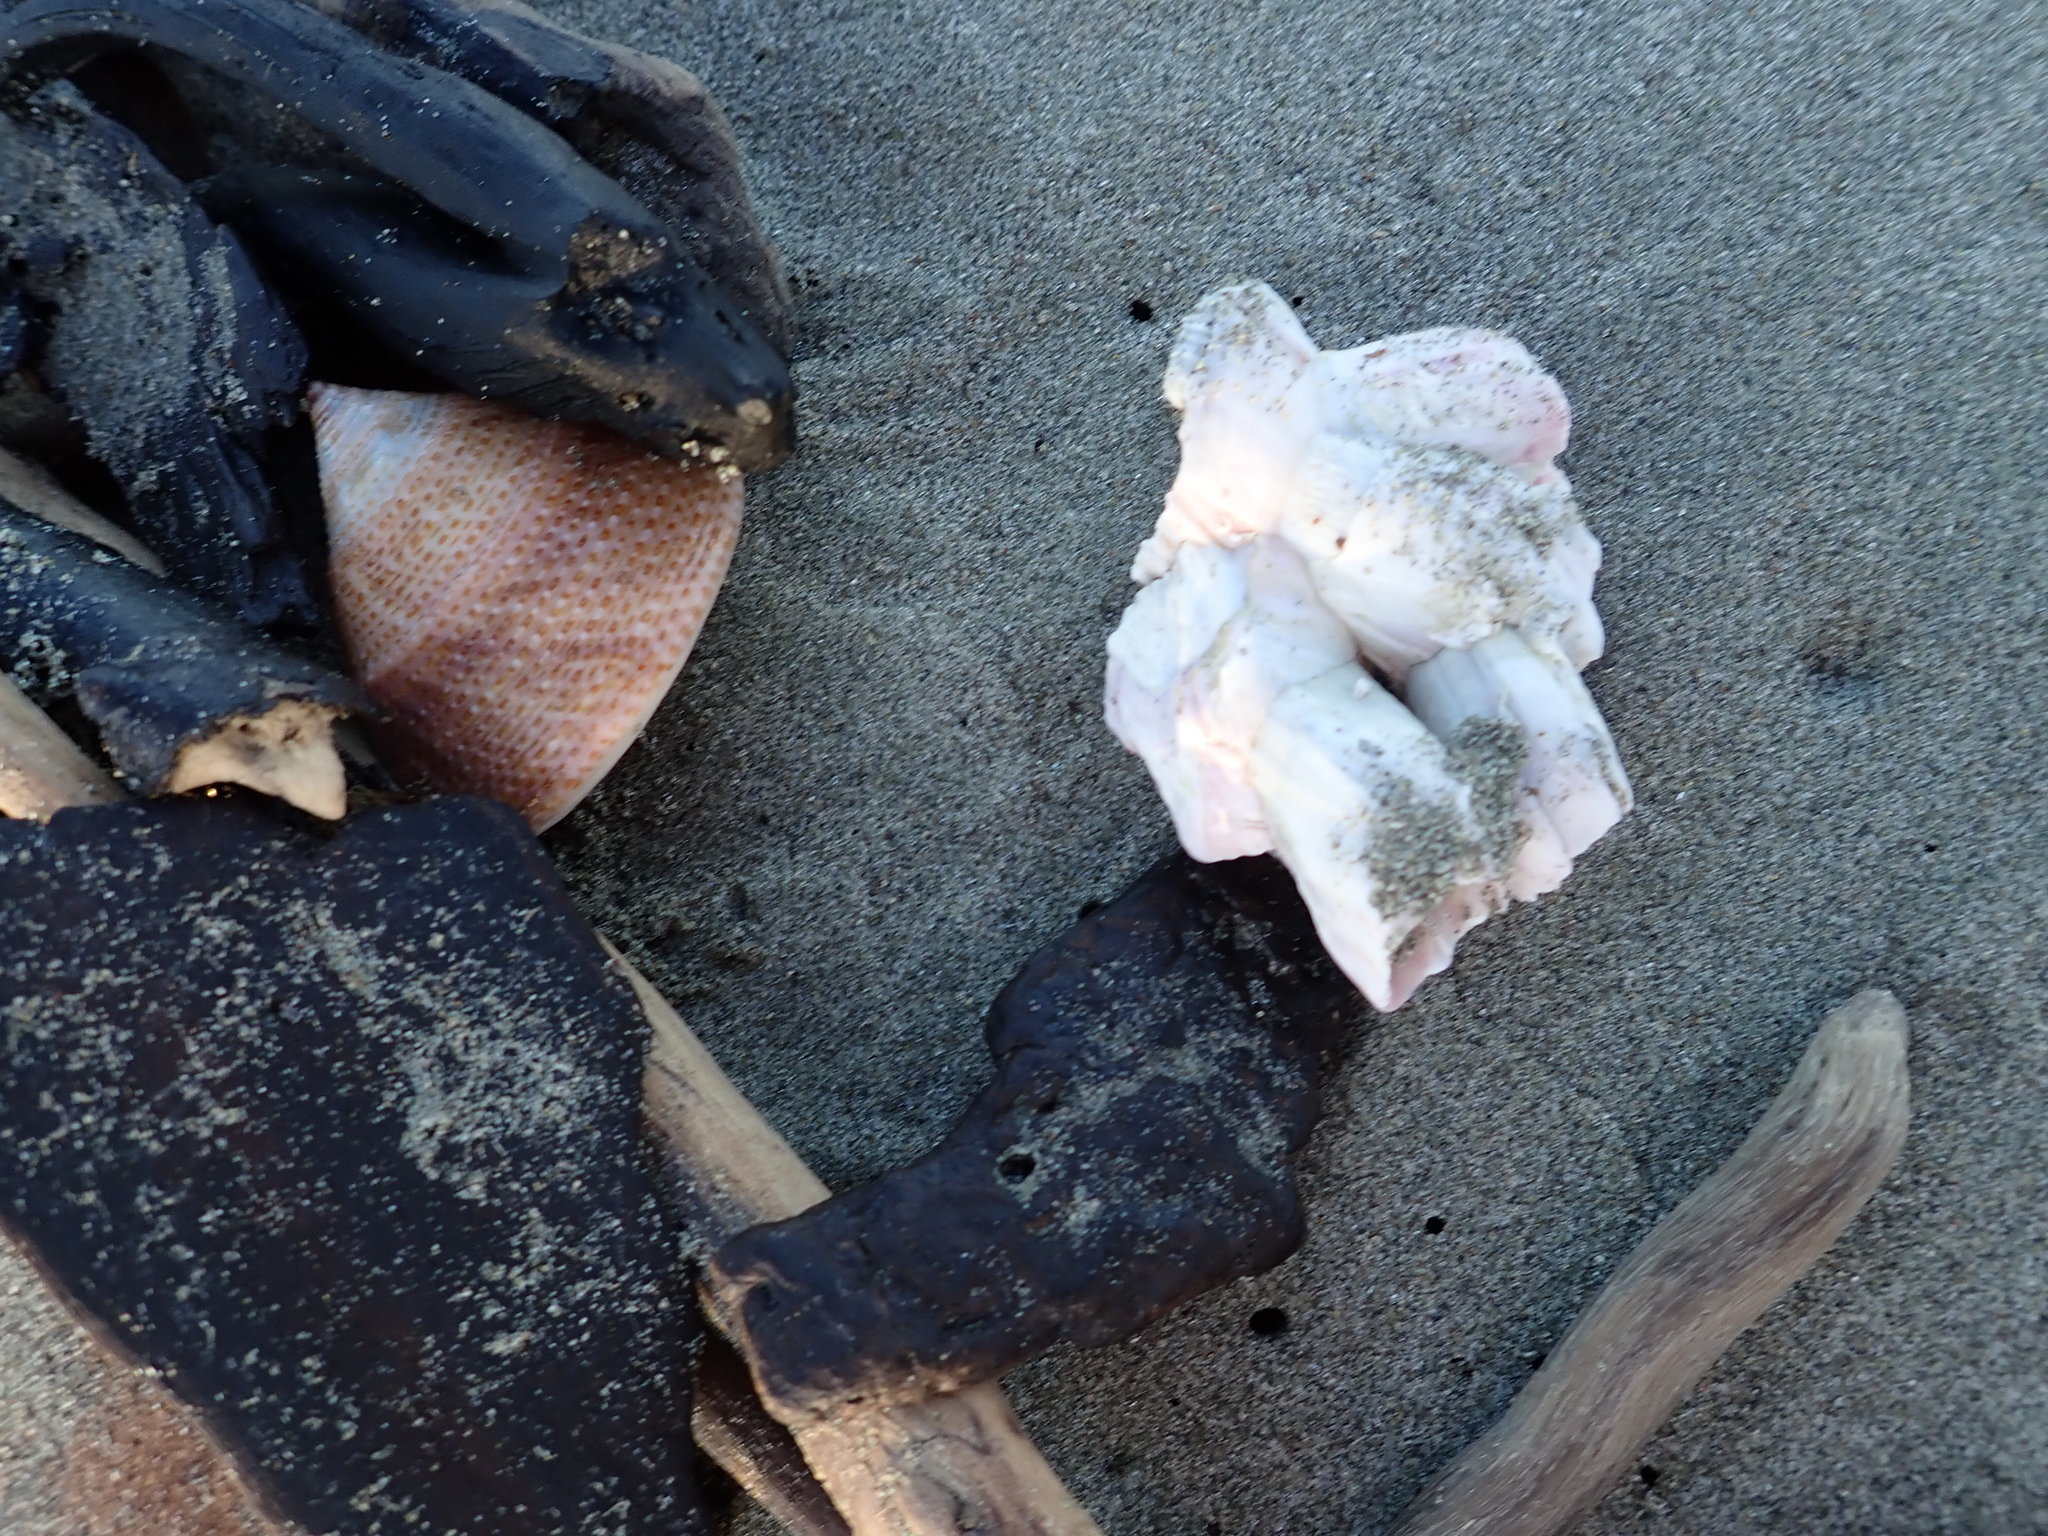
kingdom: Animalia
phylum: Arthropoda
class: Maxillopoda
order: Sessilia
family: Balanidae
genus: Notomegabalanus
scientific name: Notomegabalanus decorus
